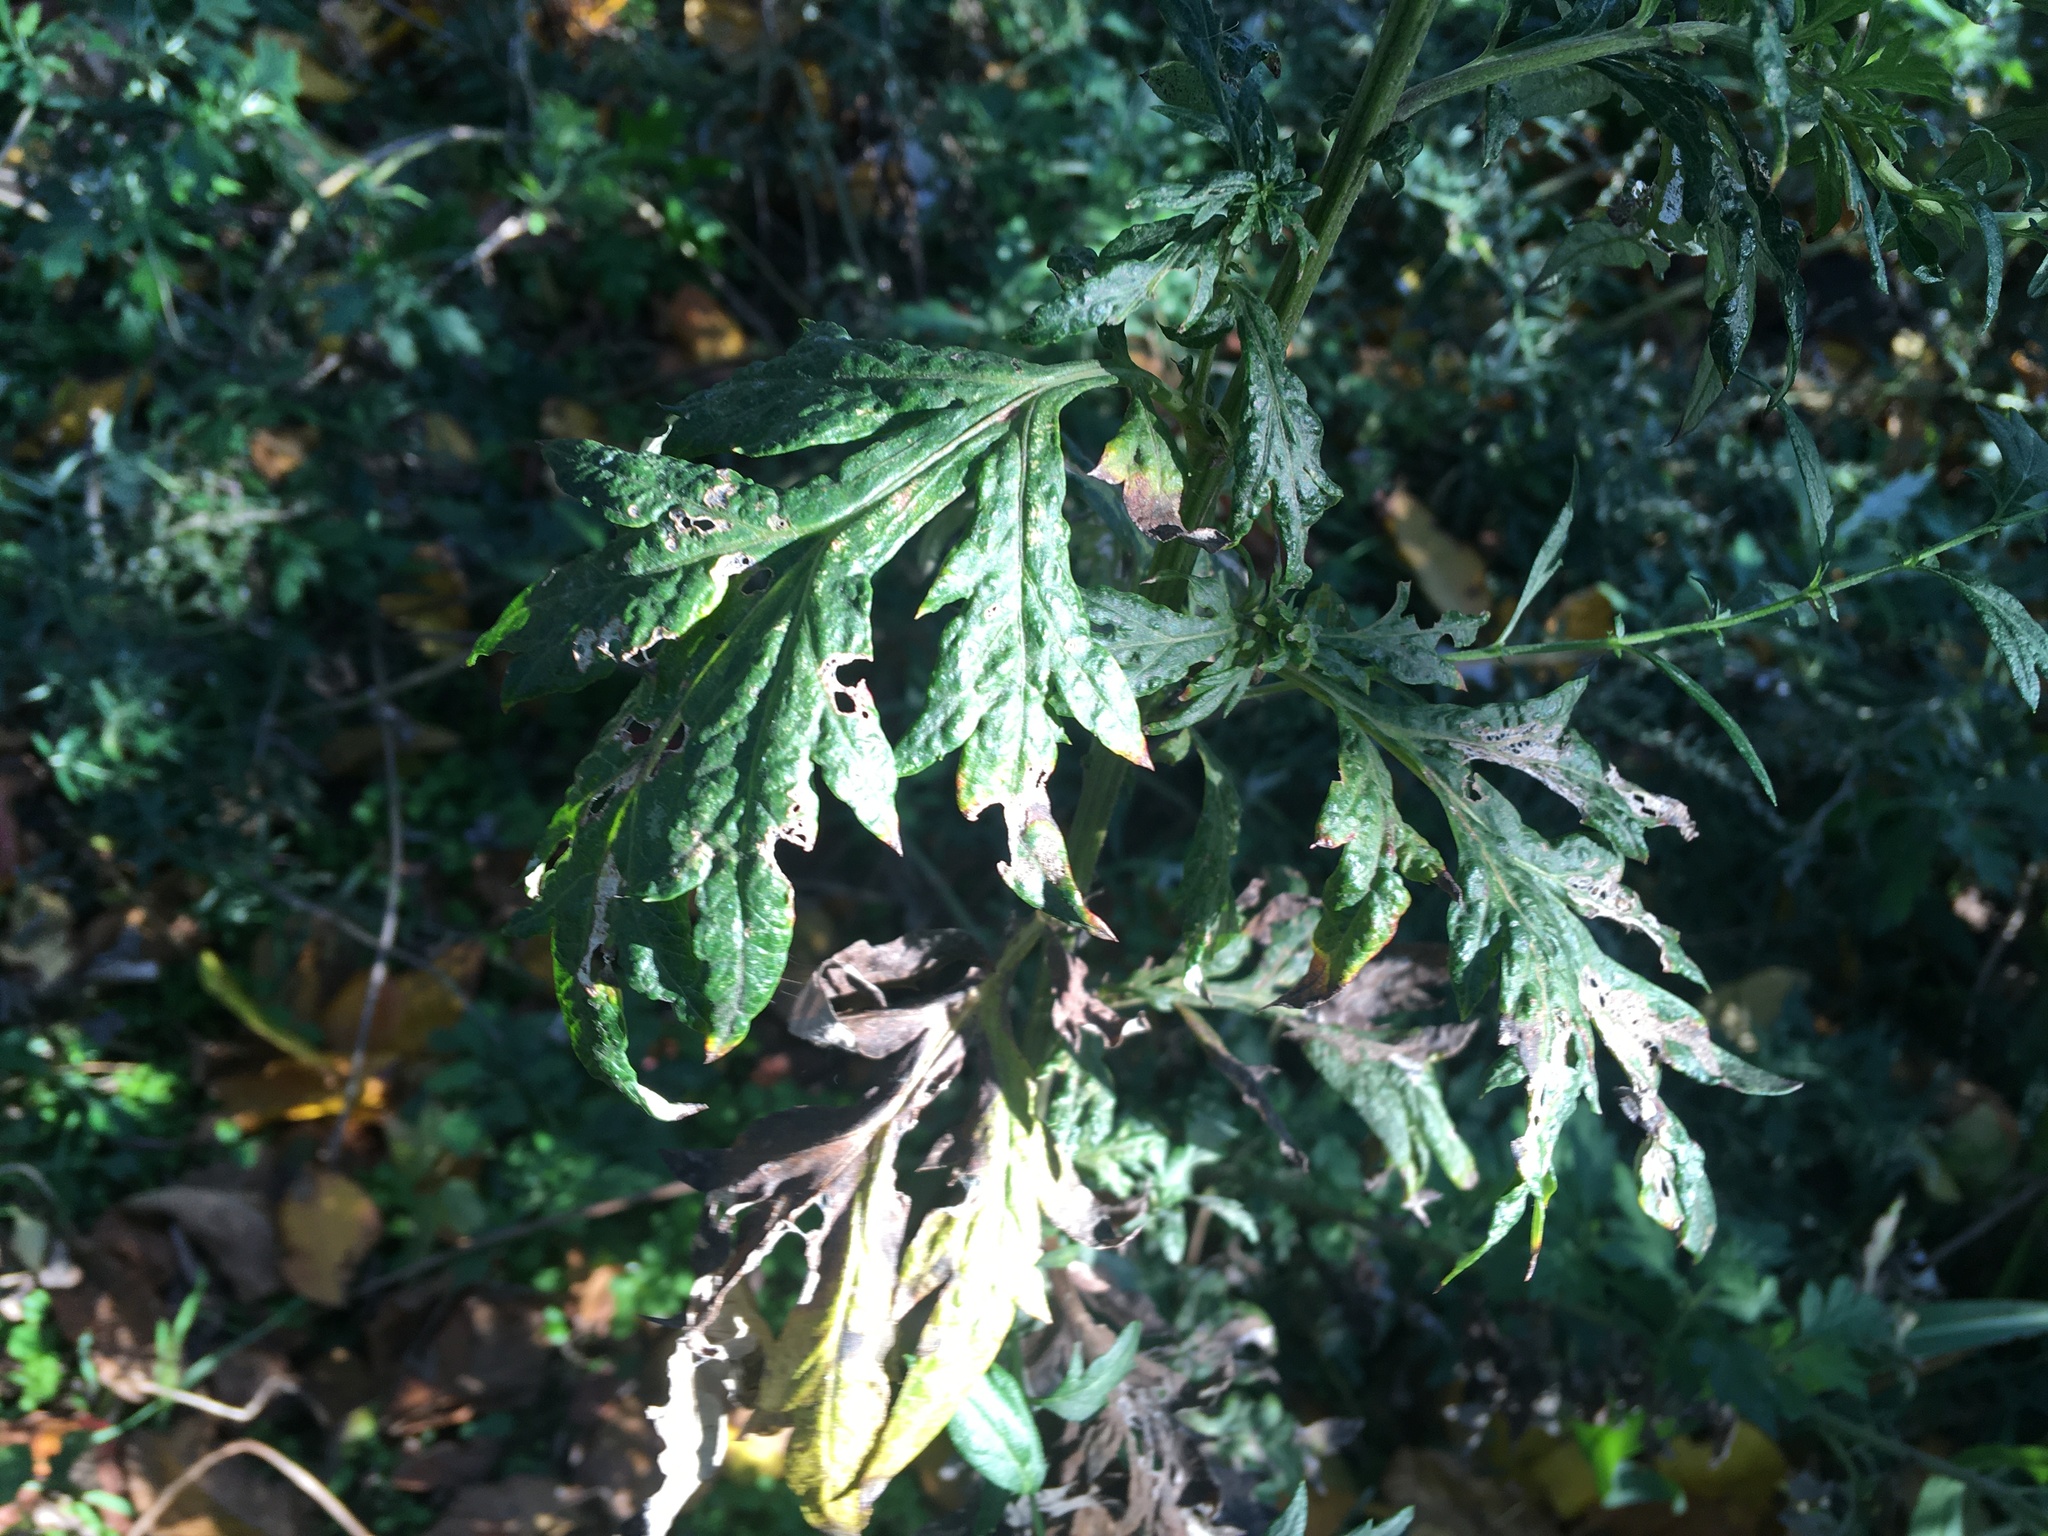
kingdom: Plantae
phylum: Tracheophyta
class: Magnoliopsida
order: Asterales
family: Asteraceae
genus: Artemisia
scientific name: Artemisia vulgaris
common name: Mugwort
